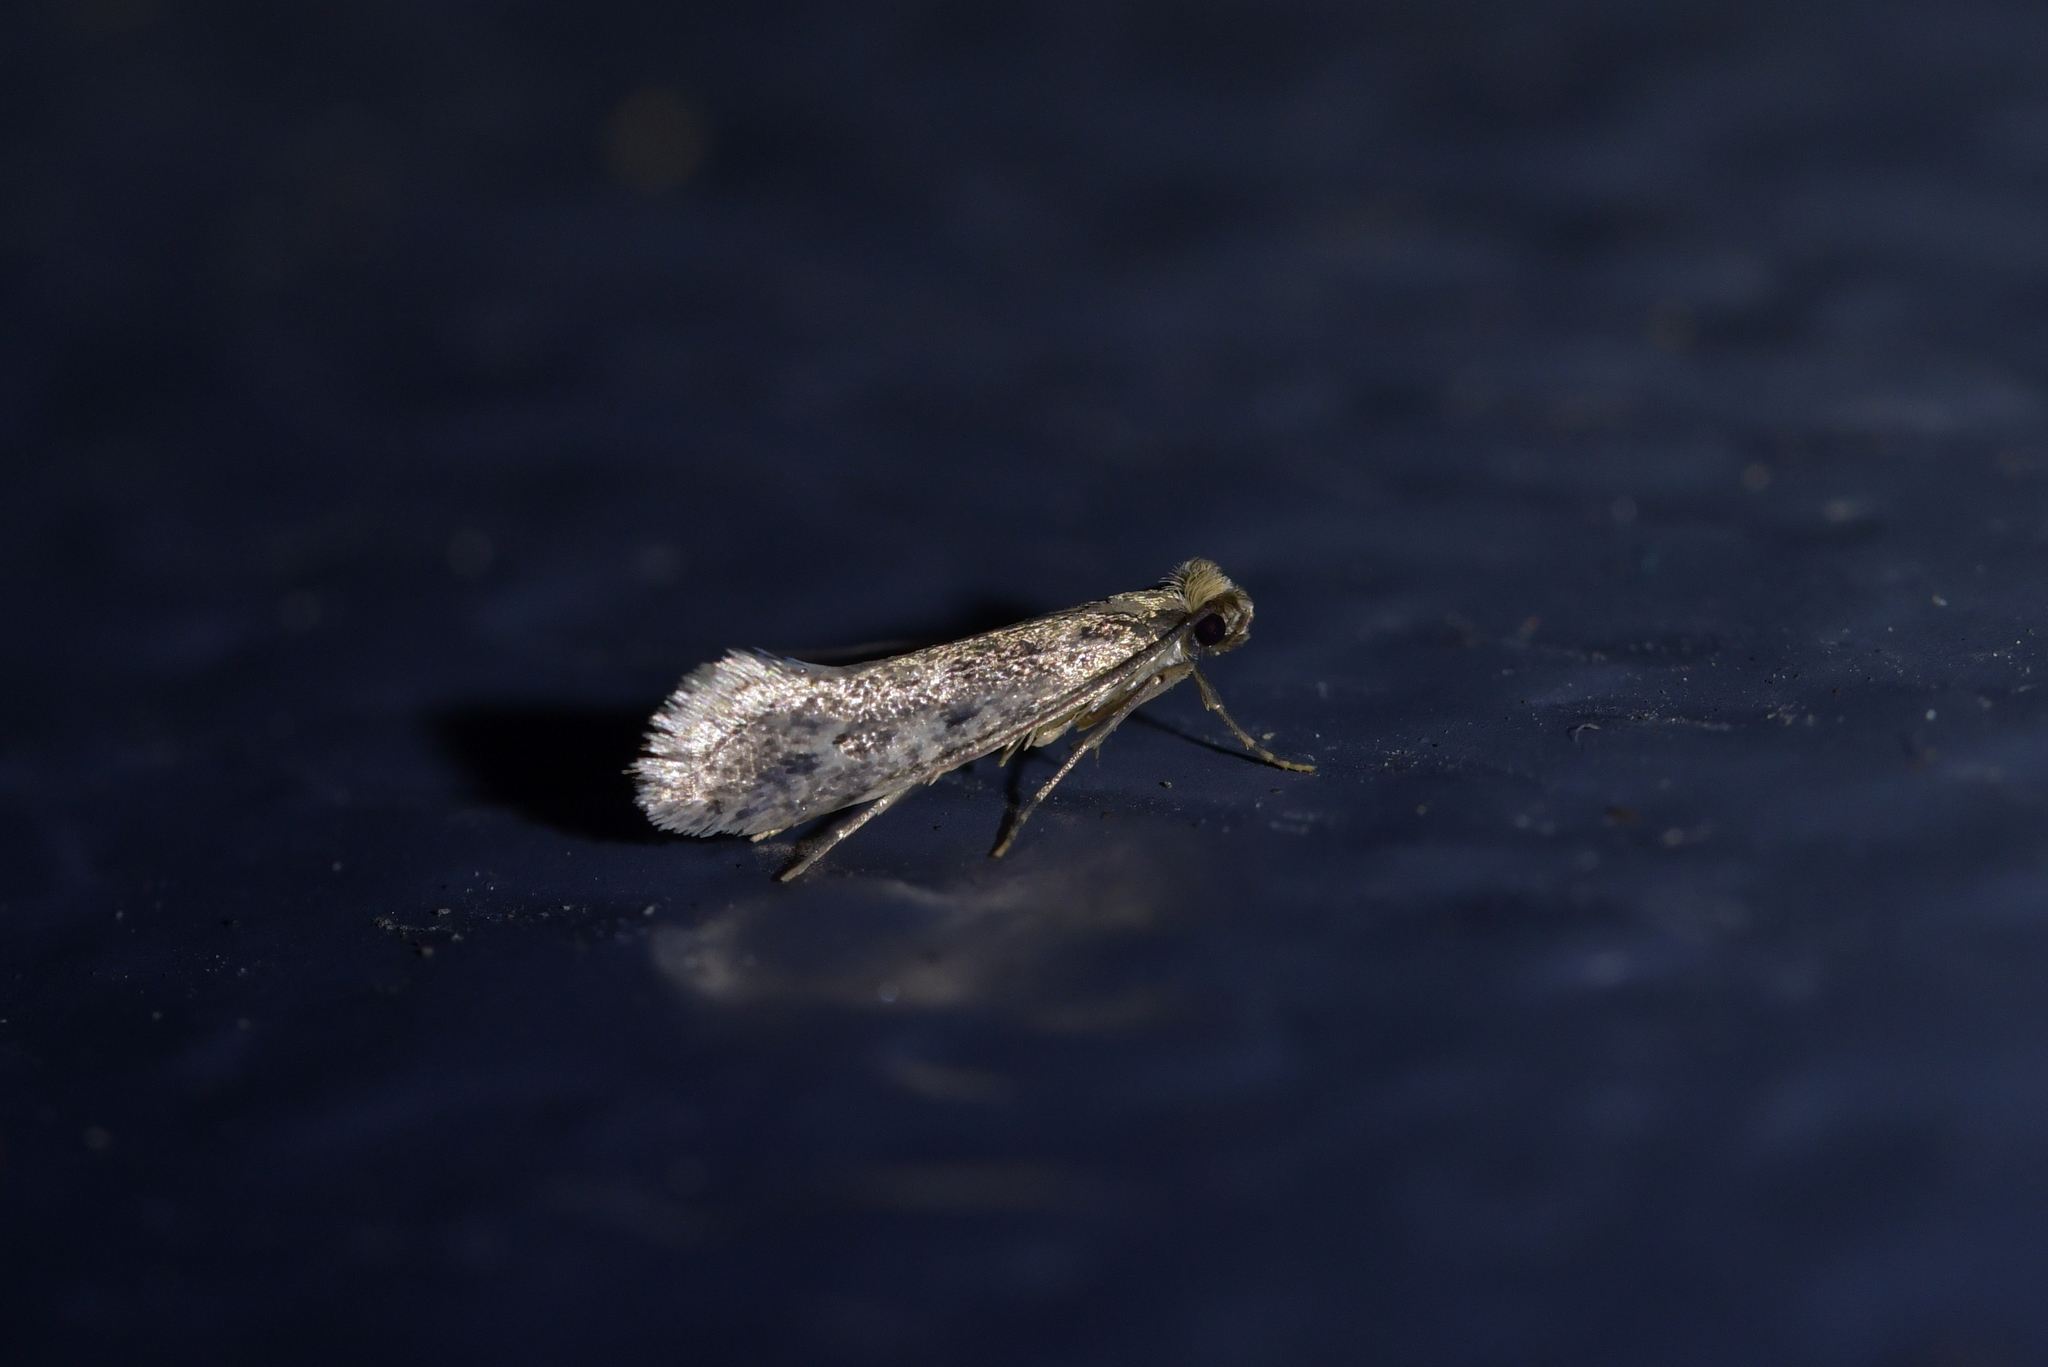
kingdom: Animalia
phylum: Arthropoda
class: Insecta
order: Lepidoptera
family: Tineidae
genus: Tinea
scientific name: Tinea pallescentella
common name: Large pale clothes moth
